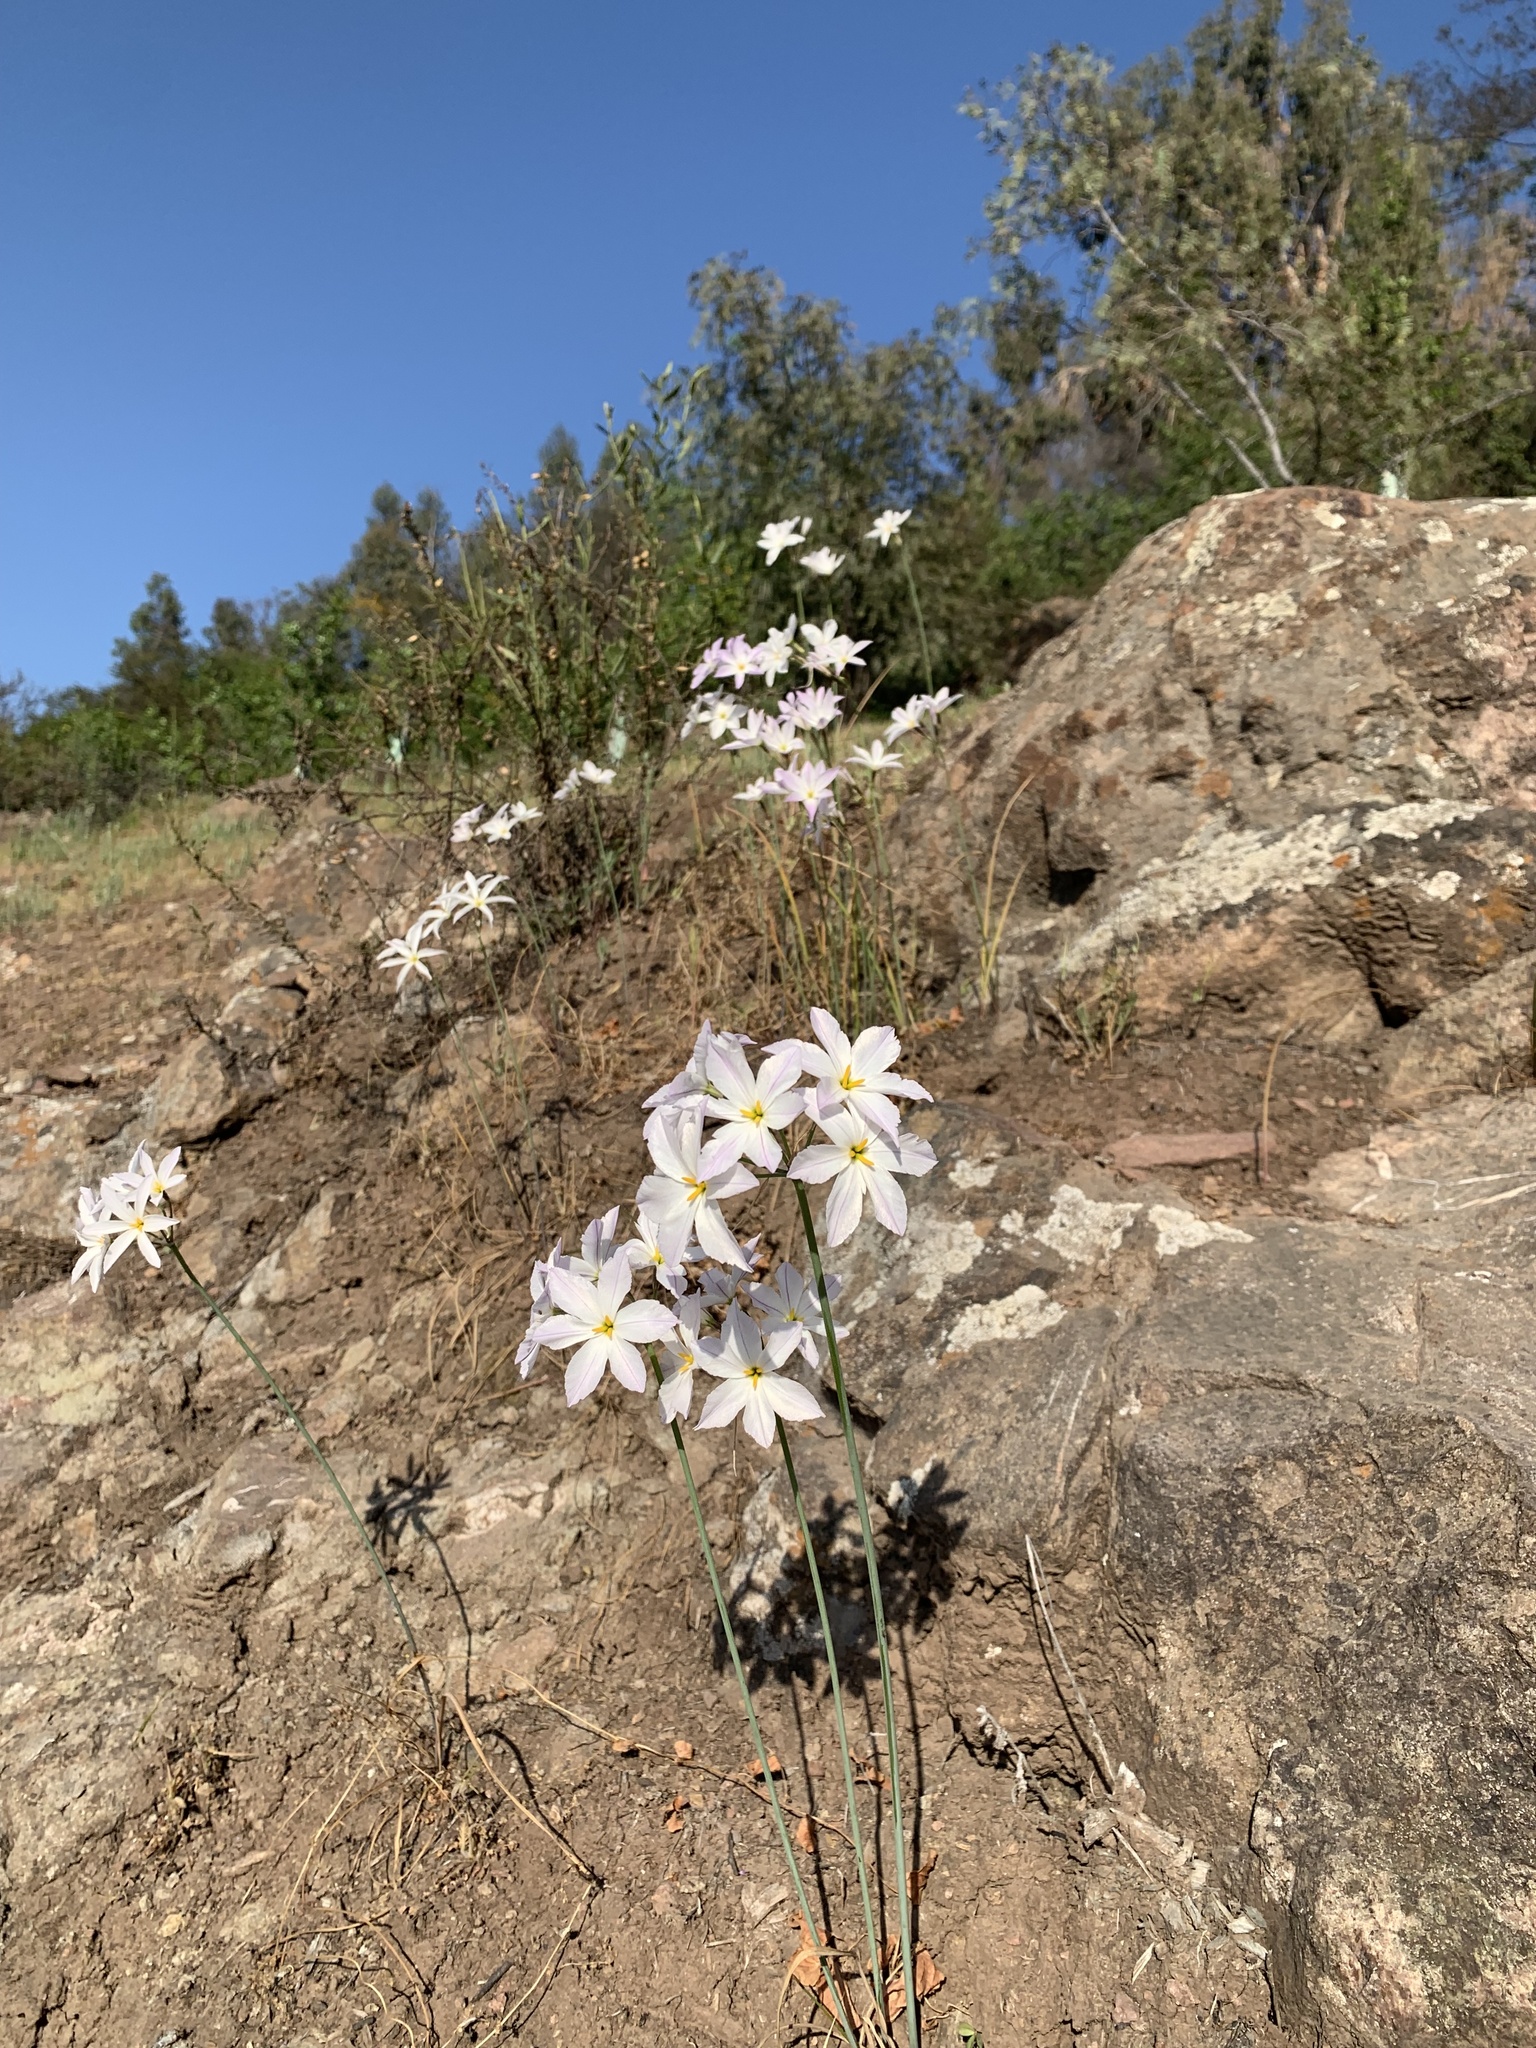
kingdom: Plantae
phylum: Tracheophyta
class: Liliopsida
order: Asparagales
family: Amaryllidaceae
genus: Leucocoryne
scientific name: Leucocoryne ixioides
